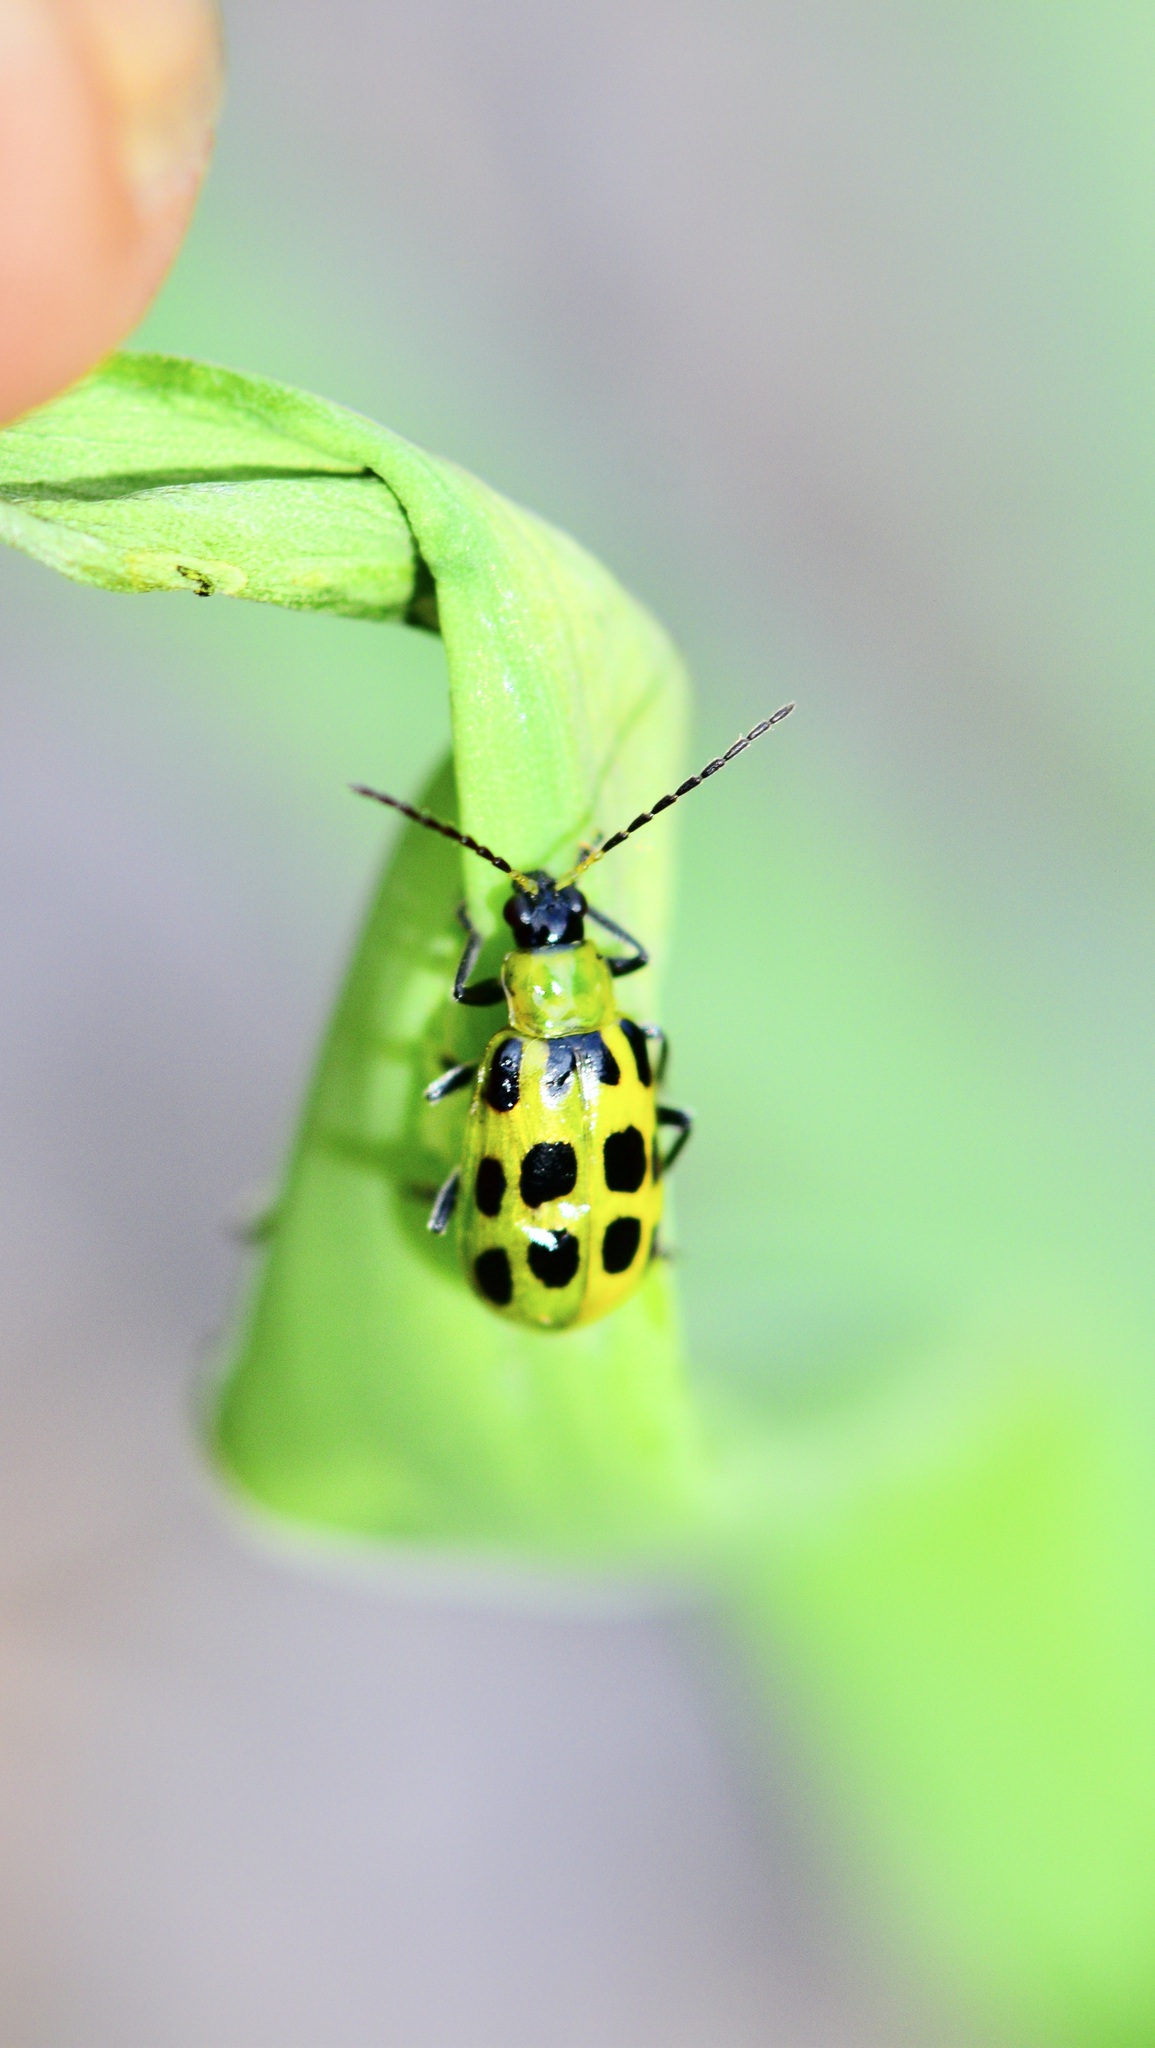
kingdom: Animalia
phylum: Arthropoda
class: Insecta
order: Coleoptera
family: Chrysomelidae
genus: Diabrotica
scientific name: Diabrotica undecimpunctata
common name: Spotted cucumber beetle
